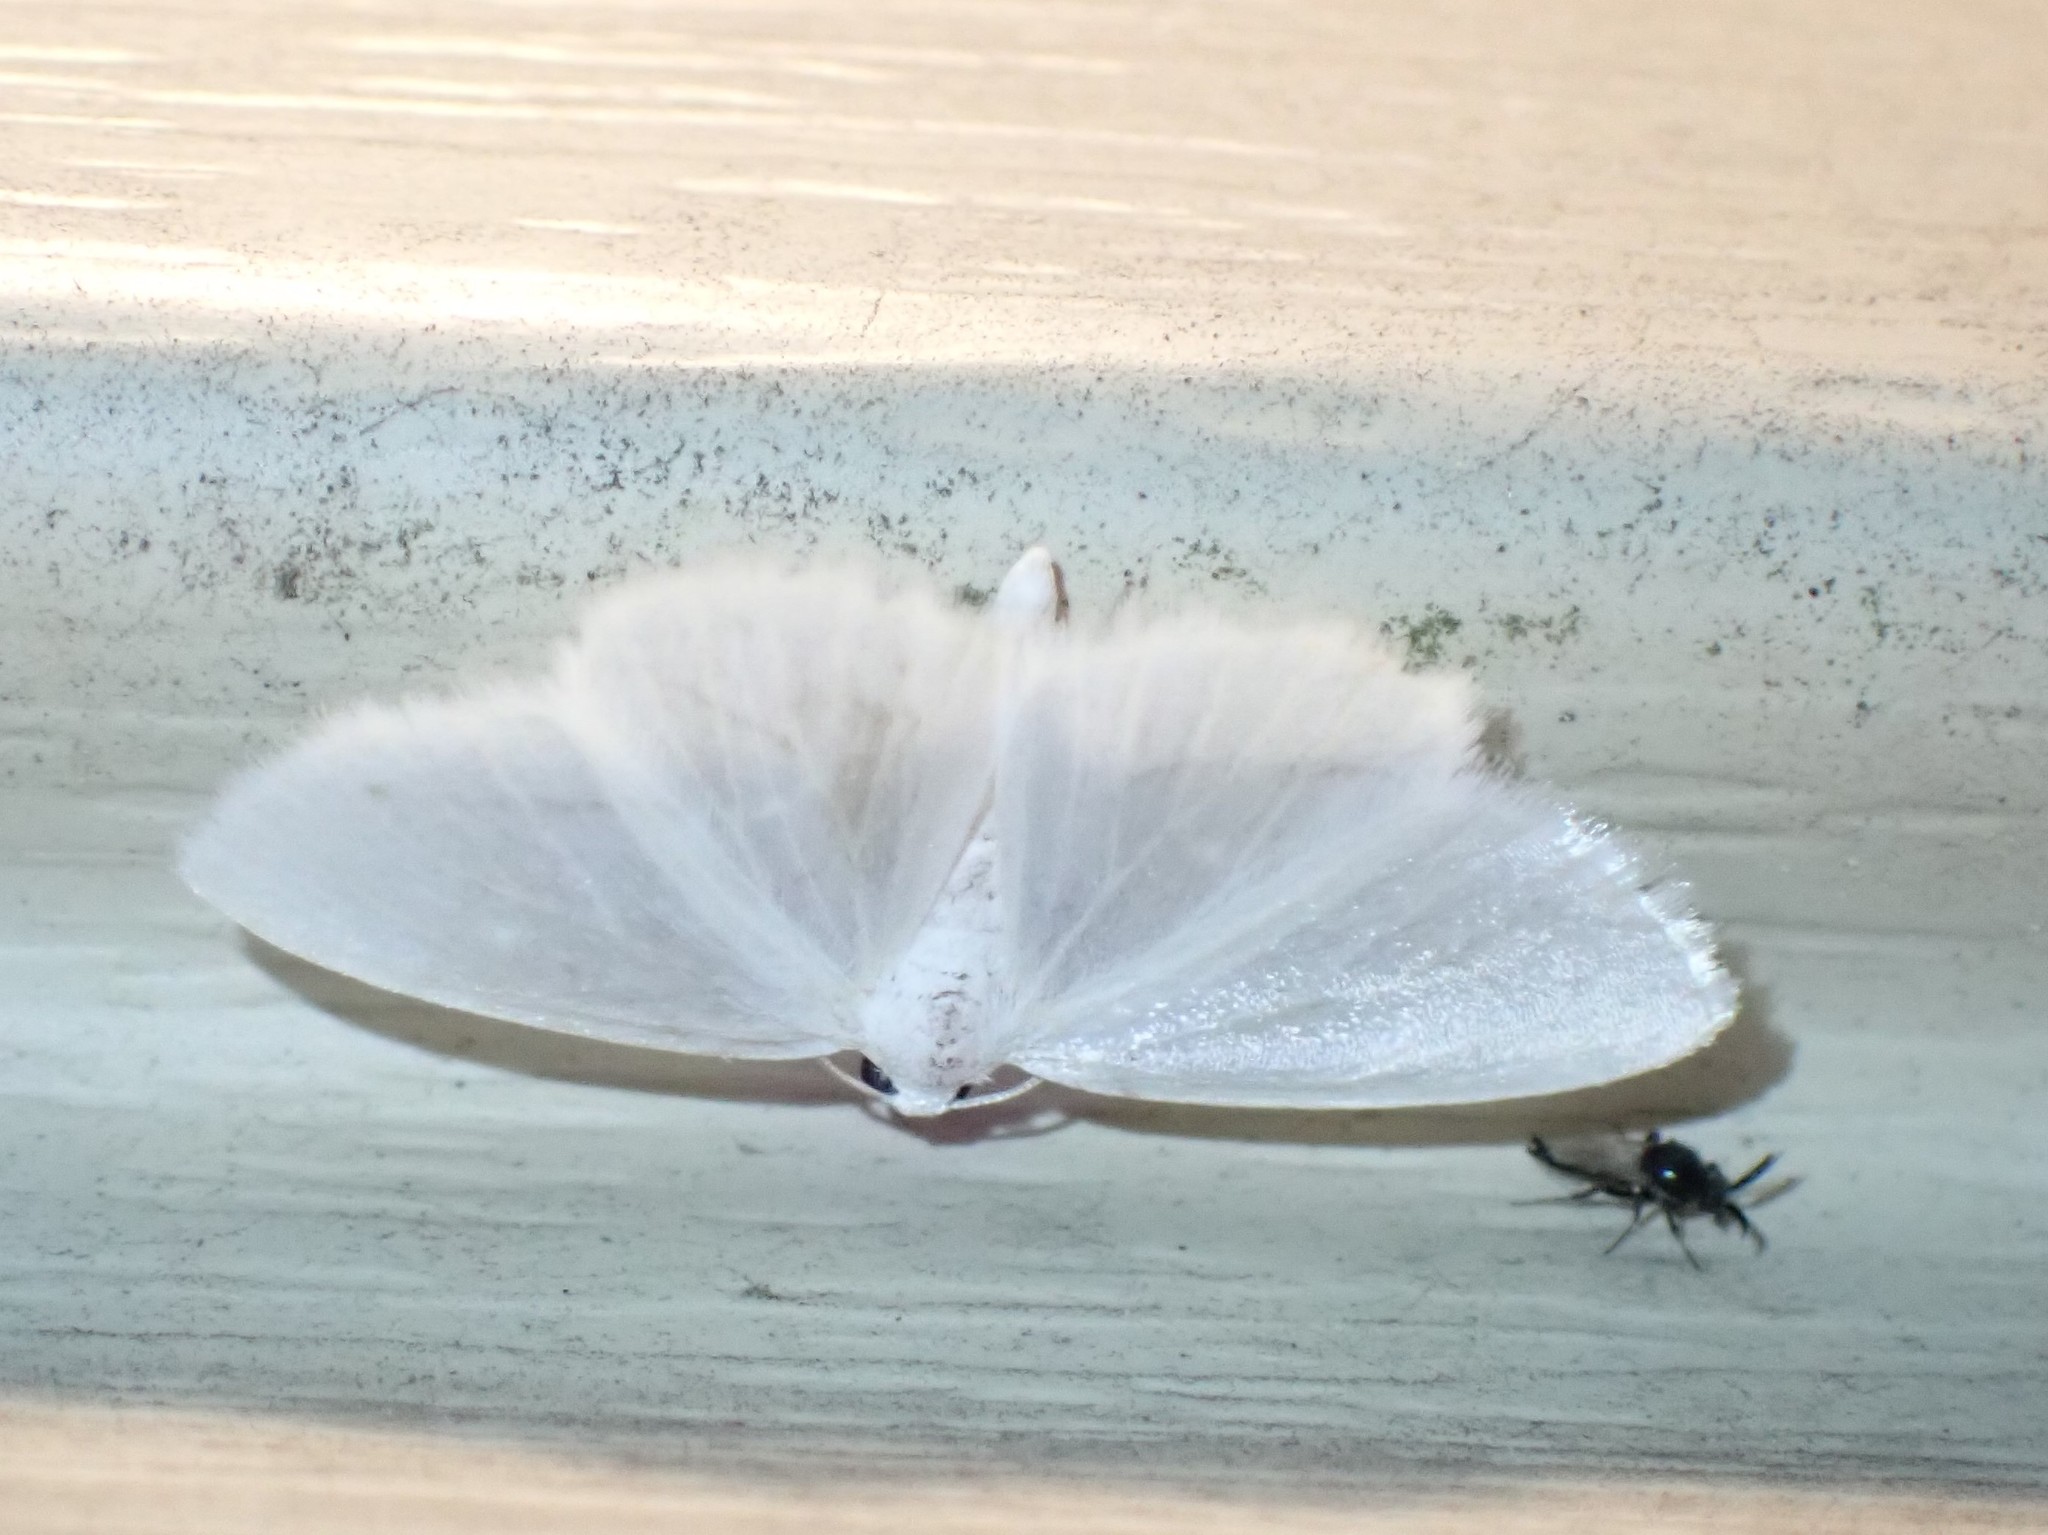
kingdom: Animalia
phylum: Arthropoda
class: Insecta
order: Lepidoptera
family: Geometridae
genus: Lomographa
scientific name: Lomographa vestaliata
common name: White spring moth
